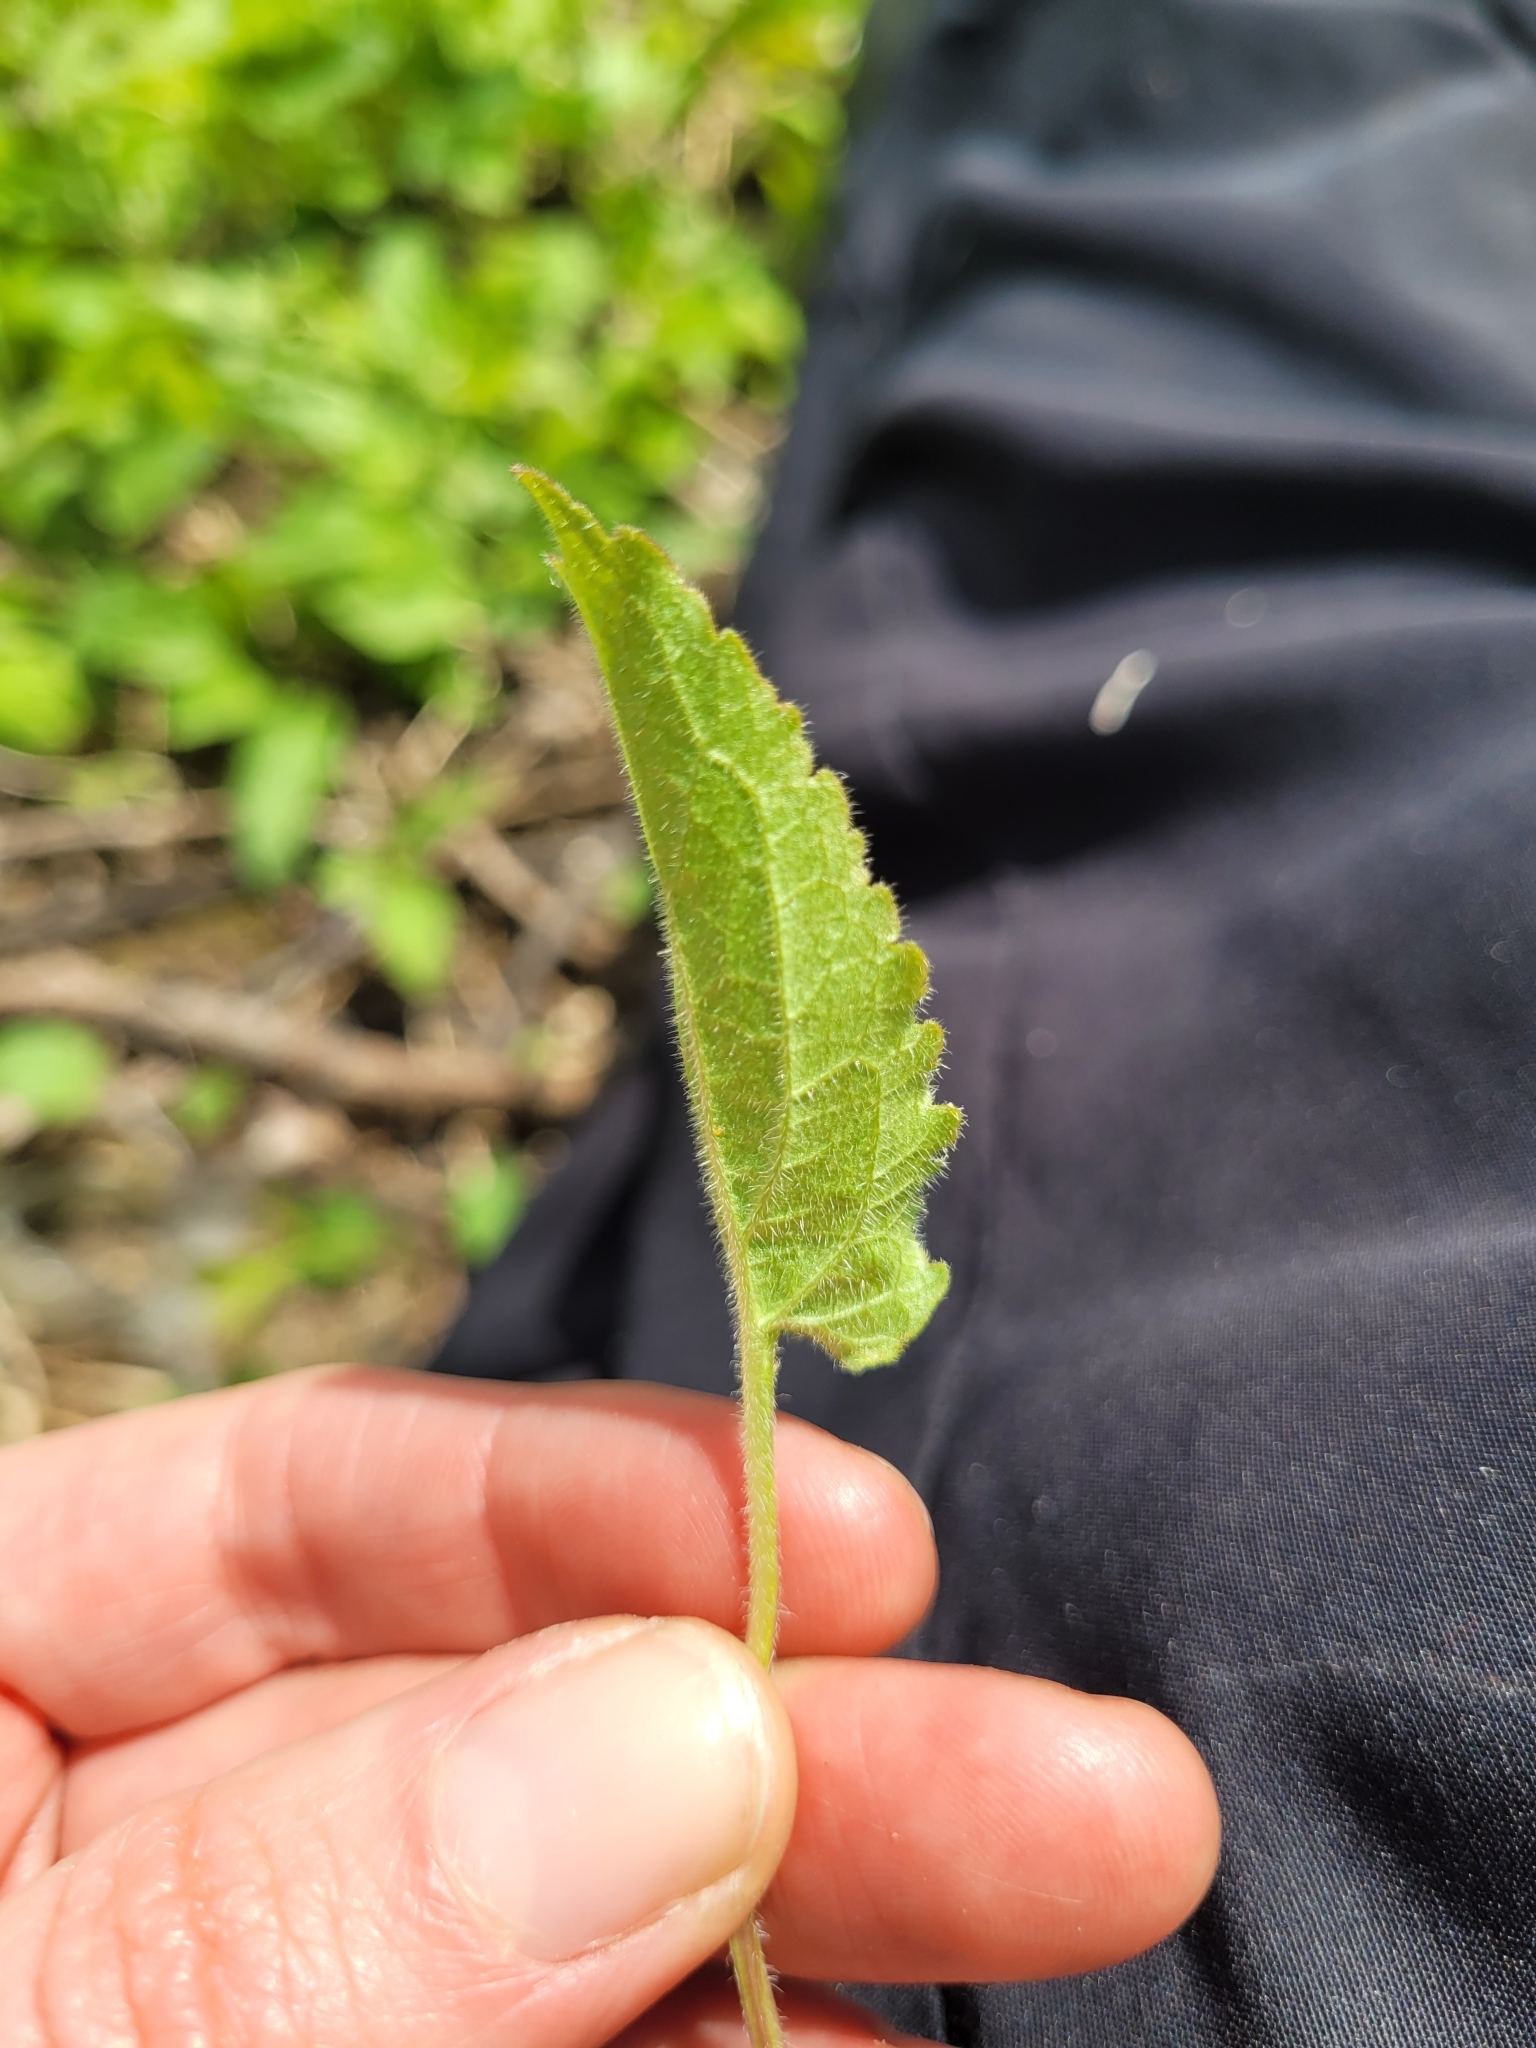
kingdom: Plantae
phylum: Tracheophyta
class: Magnoliopsida
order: Asterales
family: Campanulaceae
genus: Campanula
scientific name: Campanula rapunculoides
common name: Creeping bellflower
